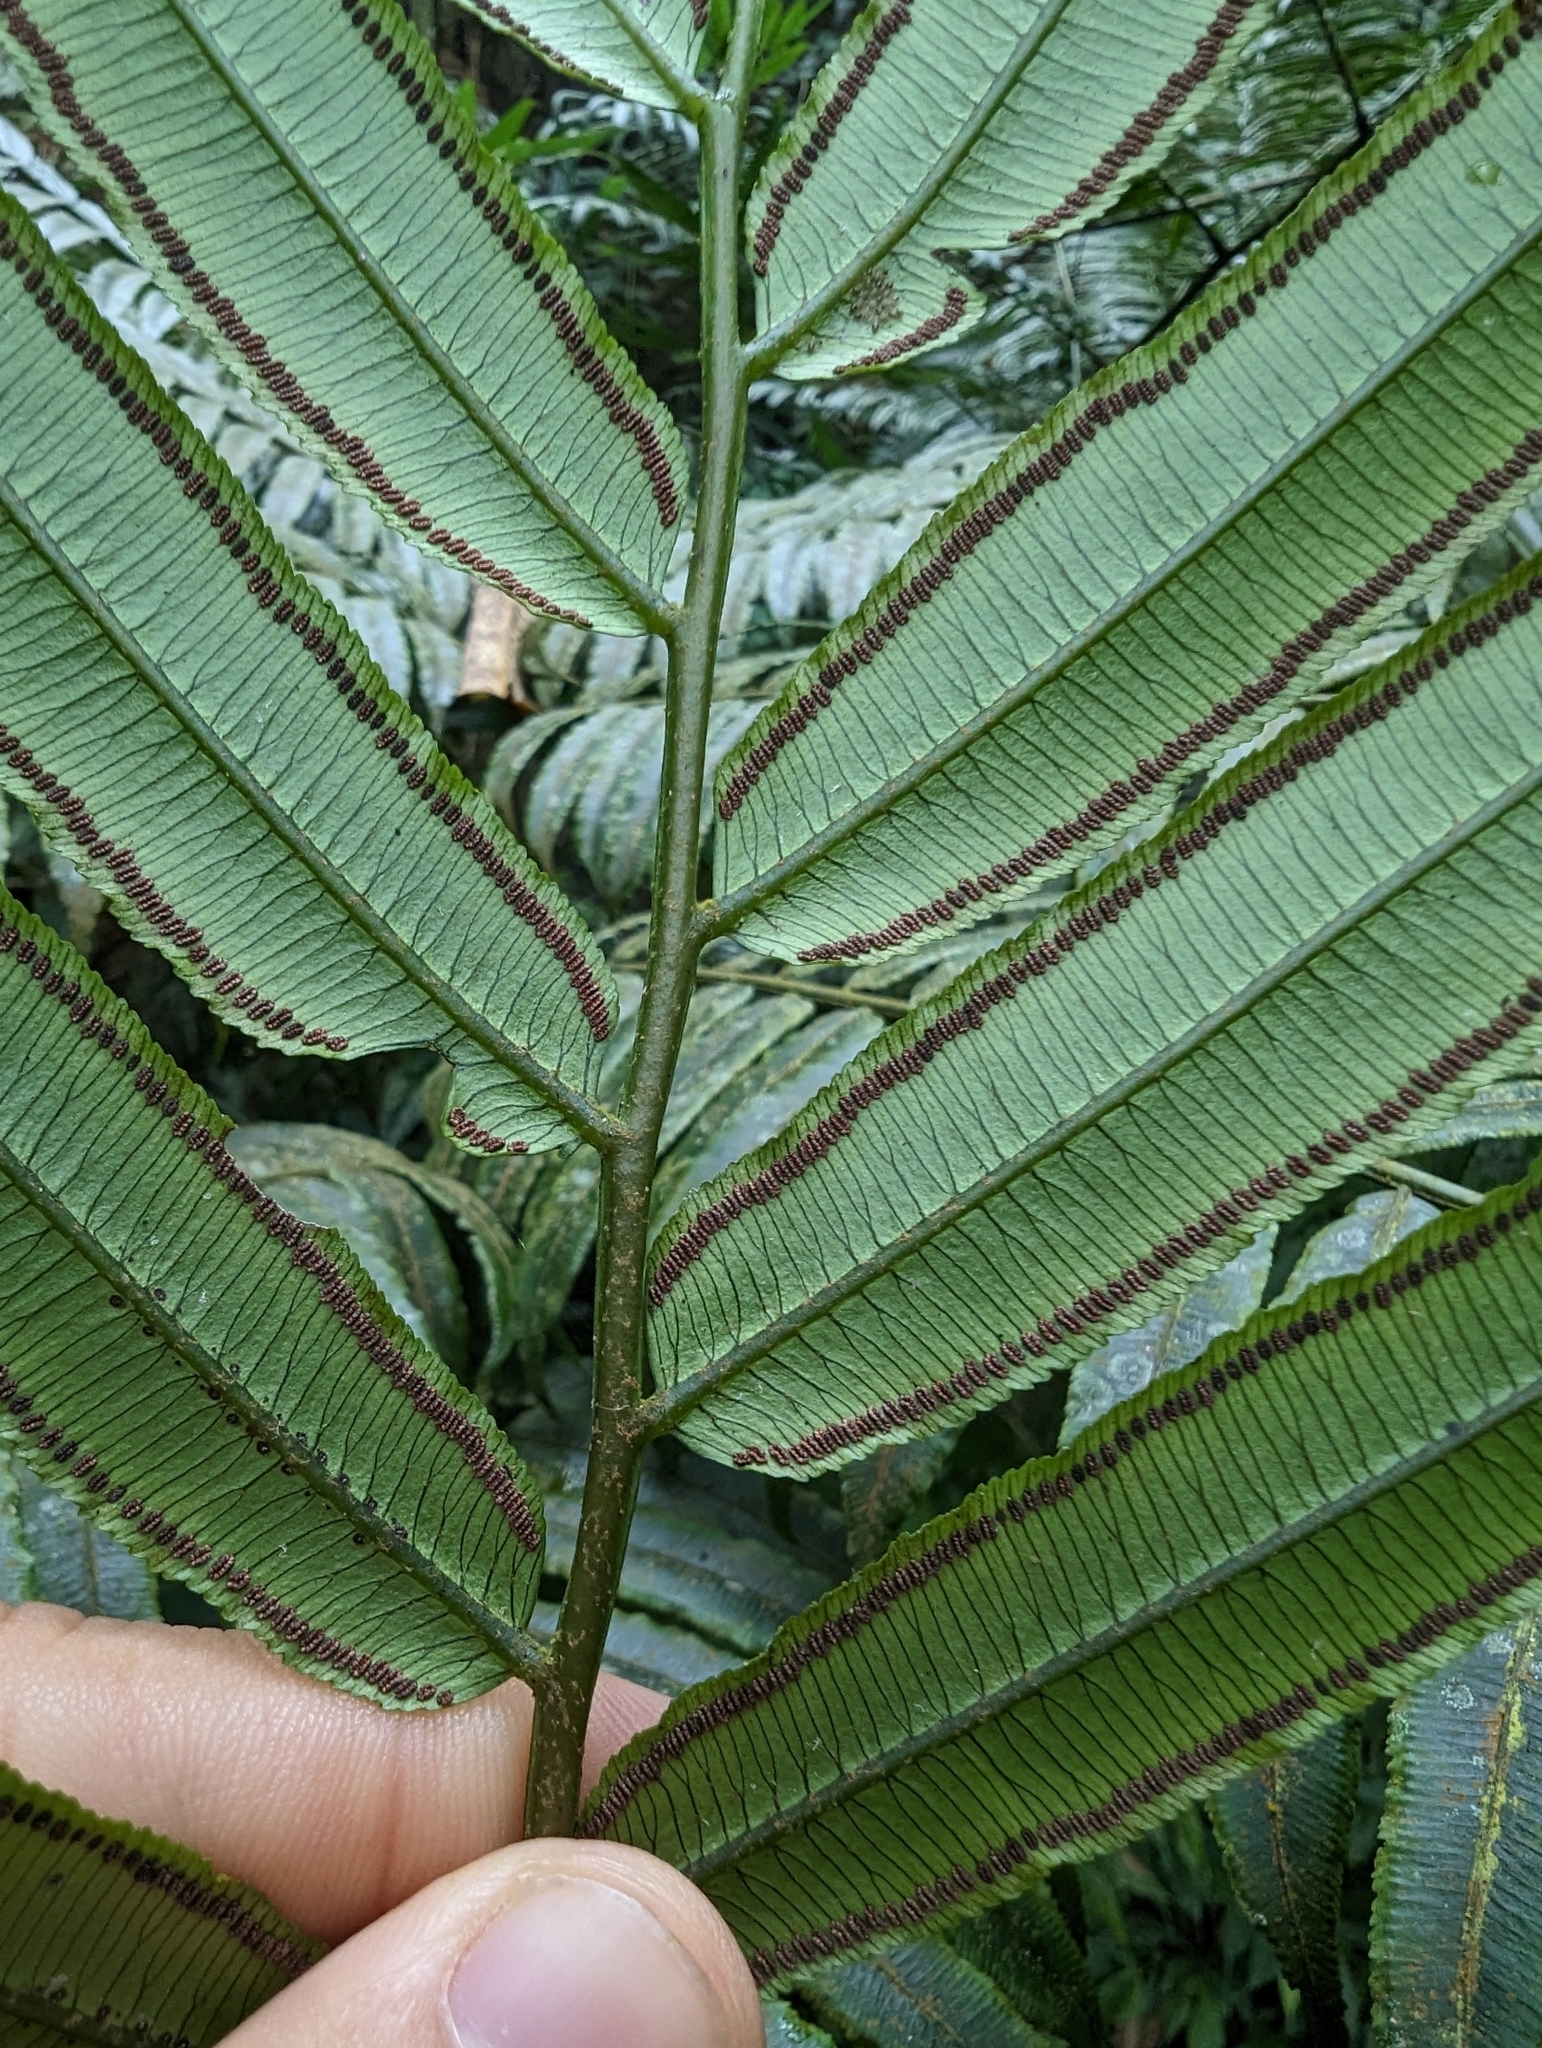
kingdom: Plantae
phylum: Tracheophyta
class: Polypodiopsida
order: Marattiales
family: Marattiaceae
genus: Angiopteris
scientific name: Angiopteris lygodiifolia
